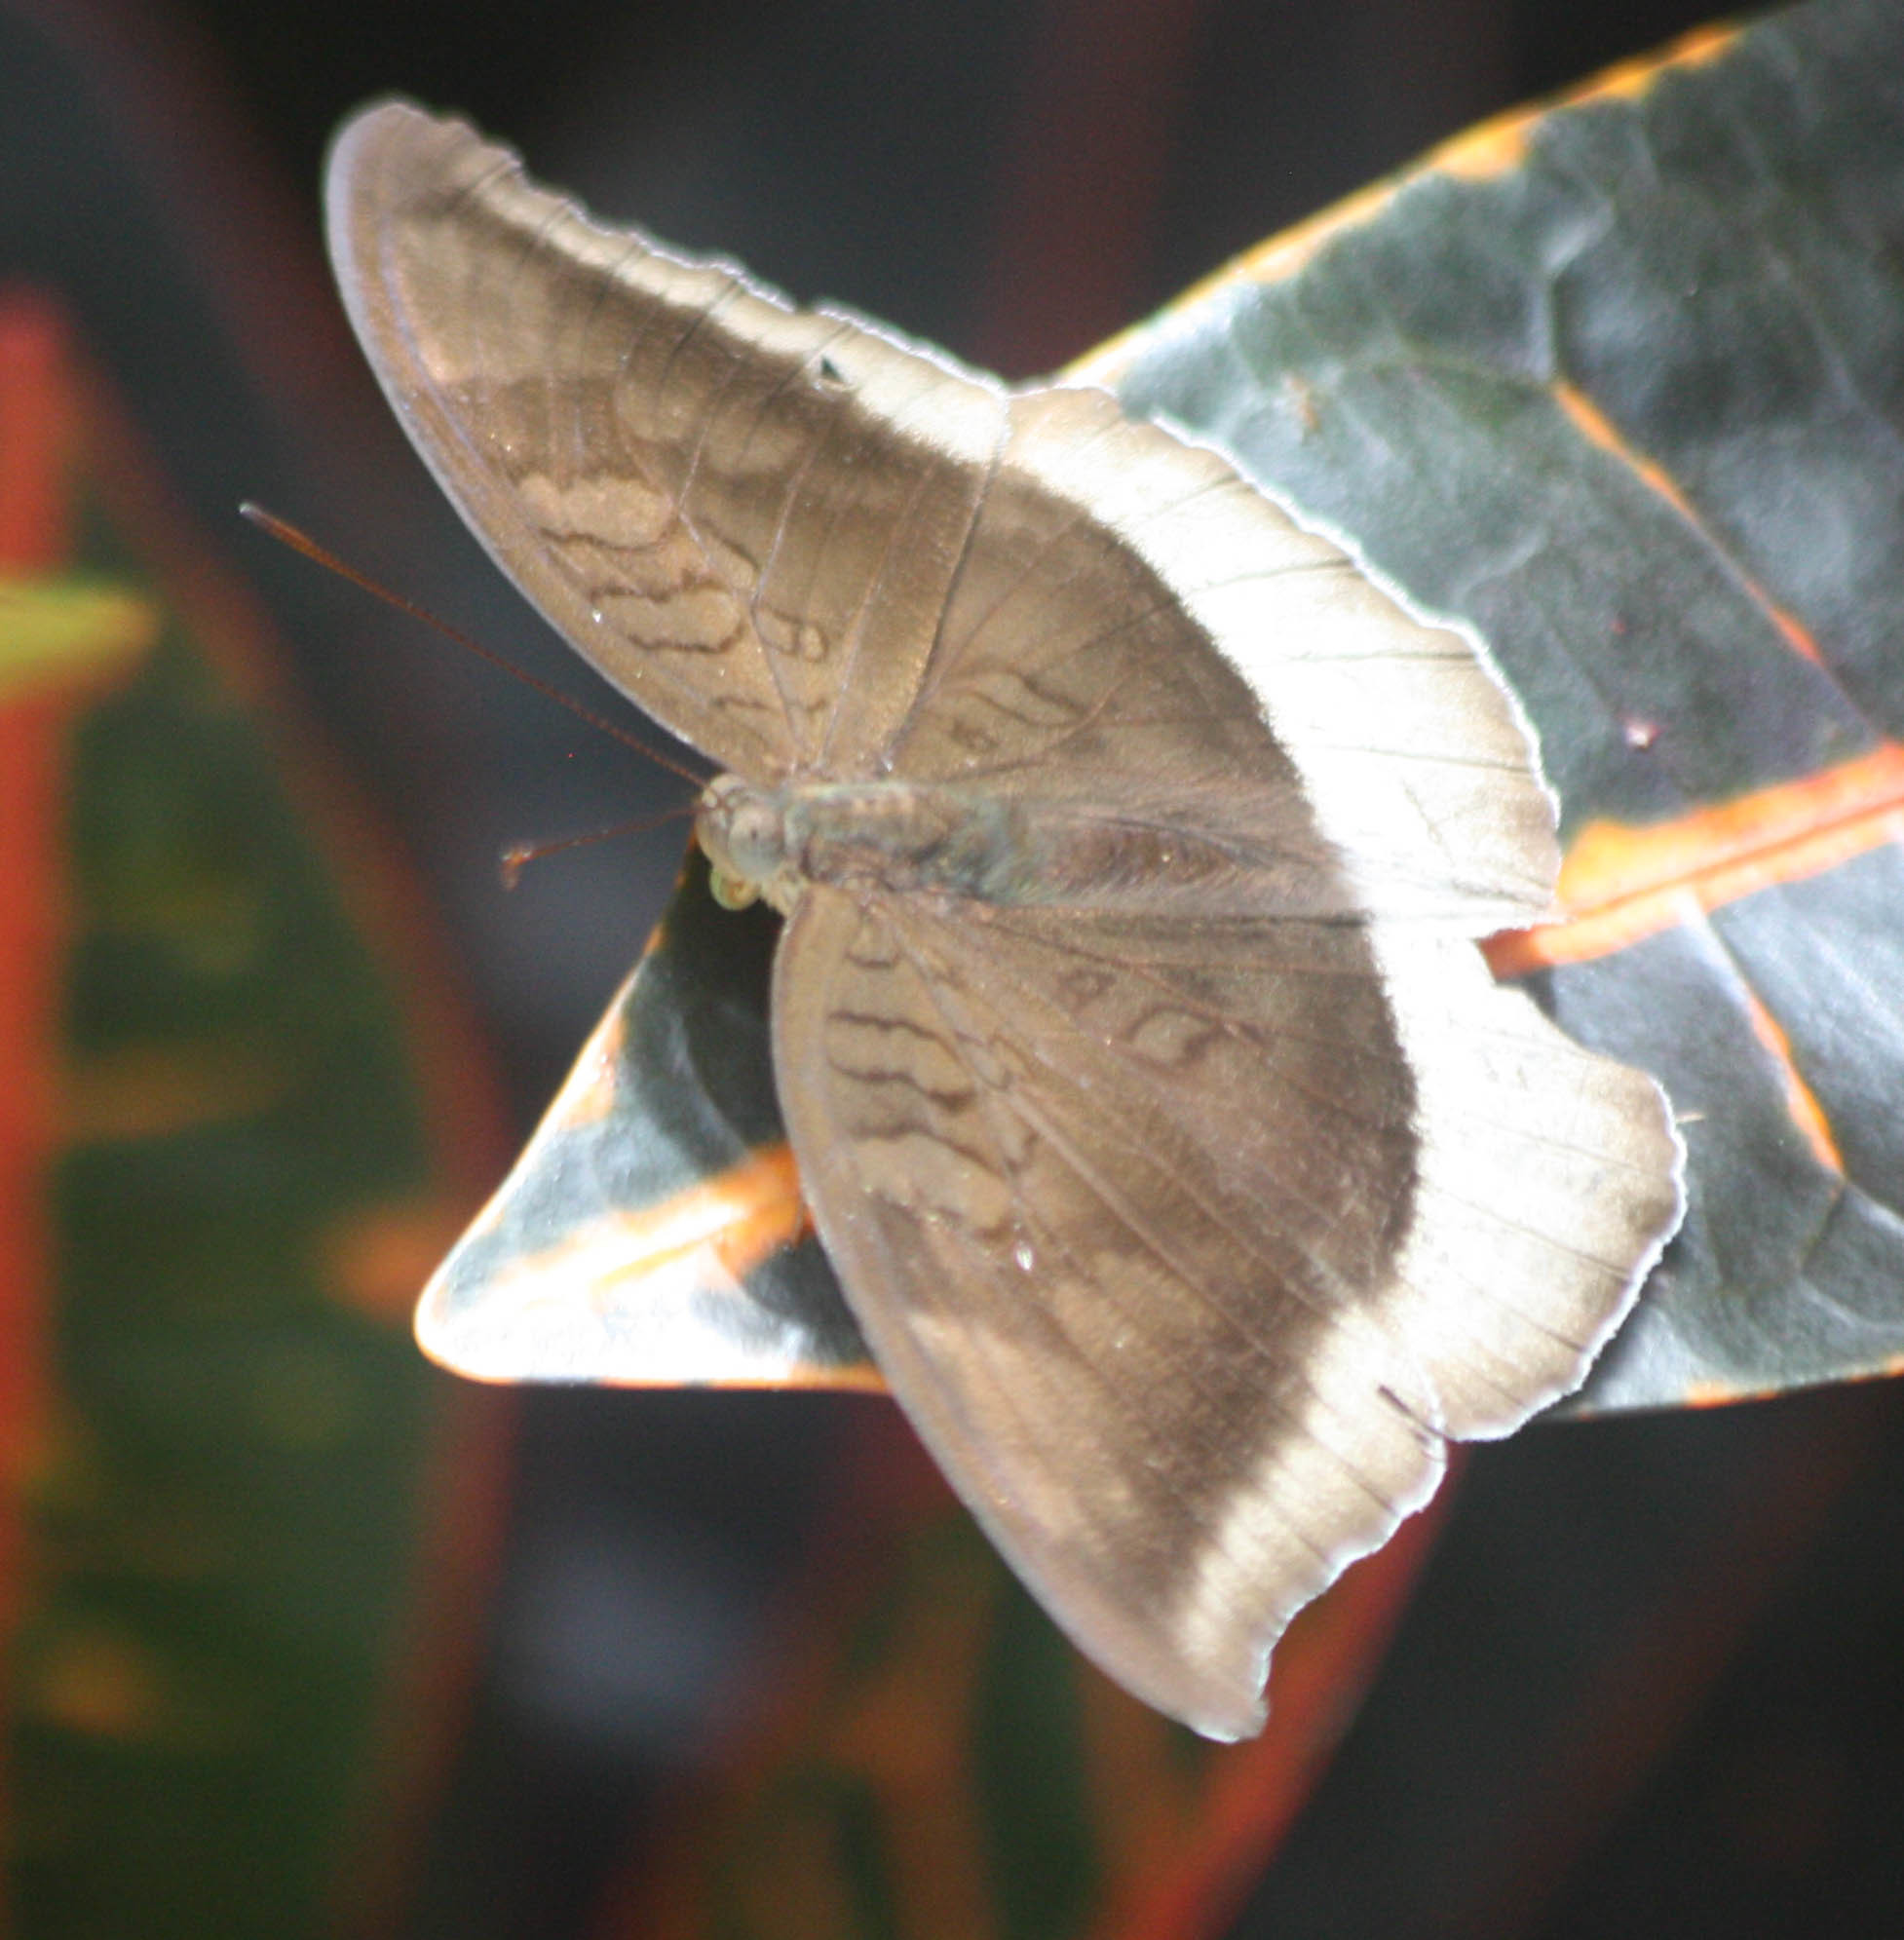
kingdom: Animalia
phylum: Arthropoda
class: Insecta
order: Lepidoptera
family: Nymphalidae
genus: Tanaecia
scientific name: Tanaecia lepidea
